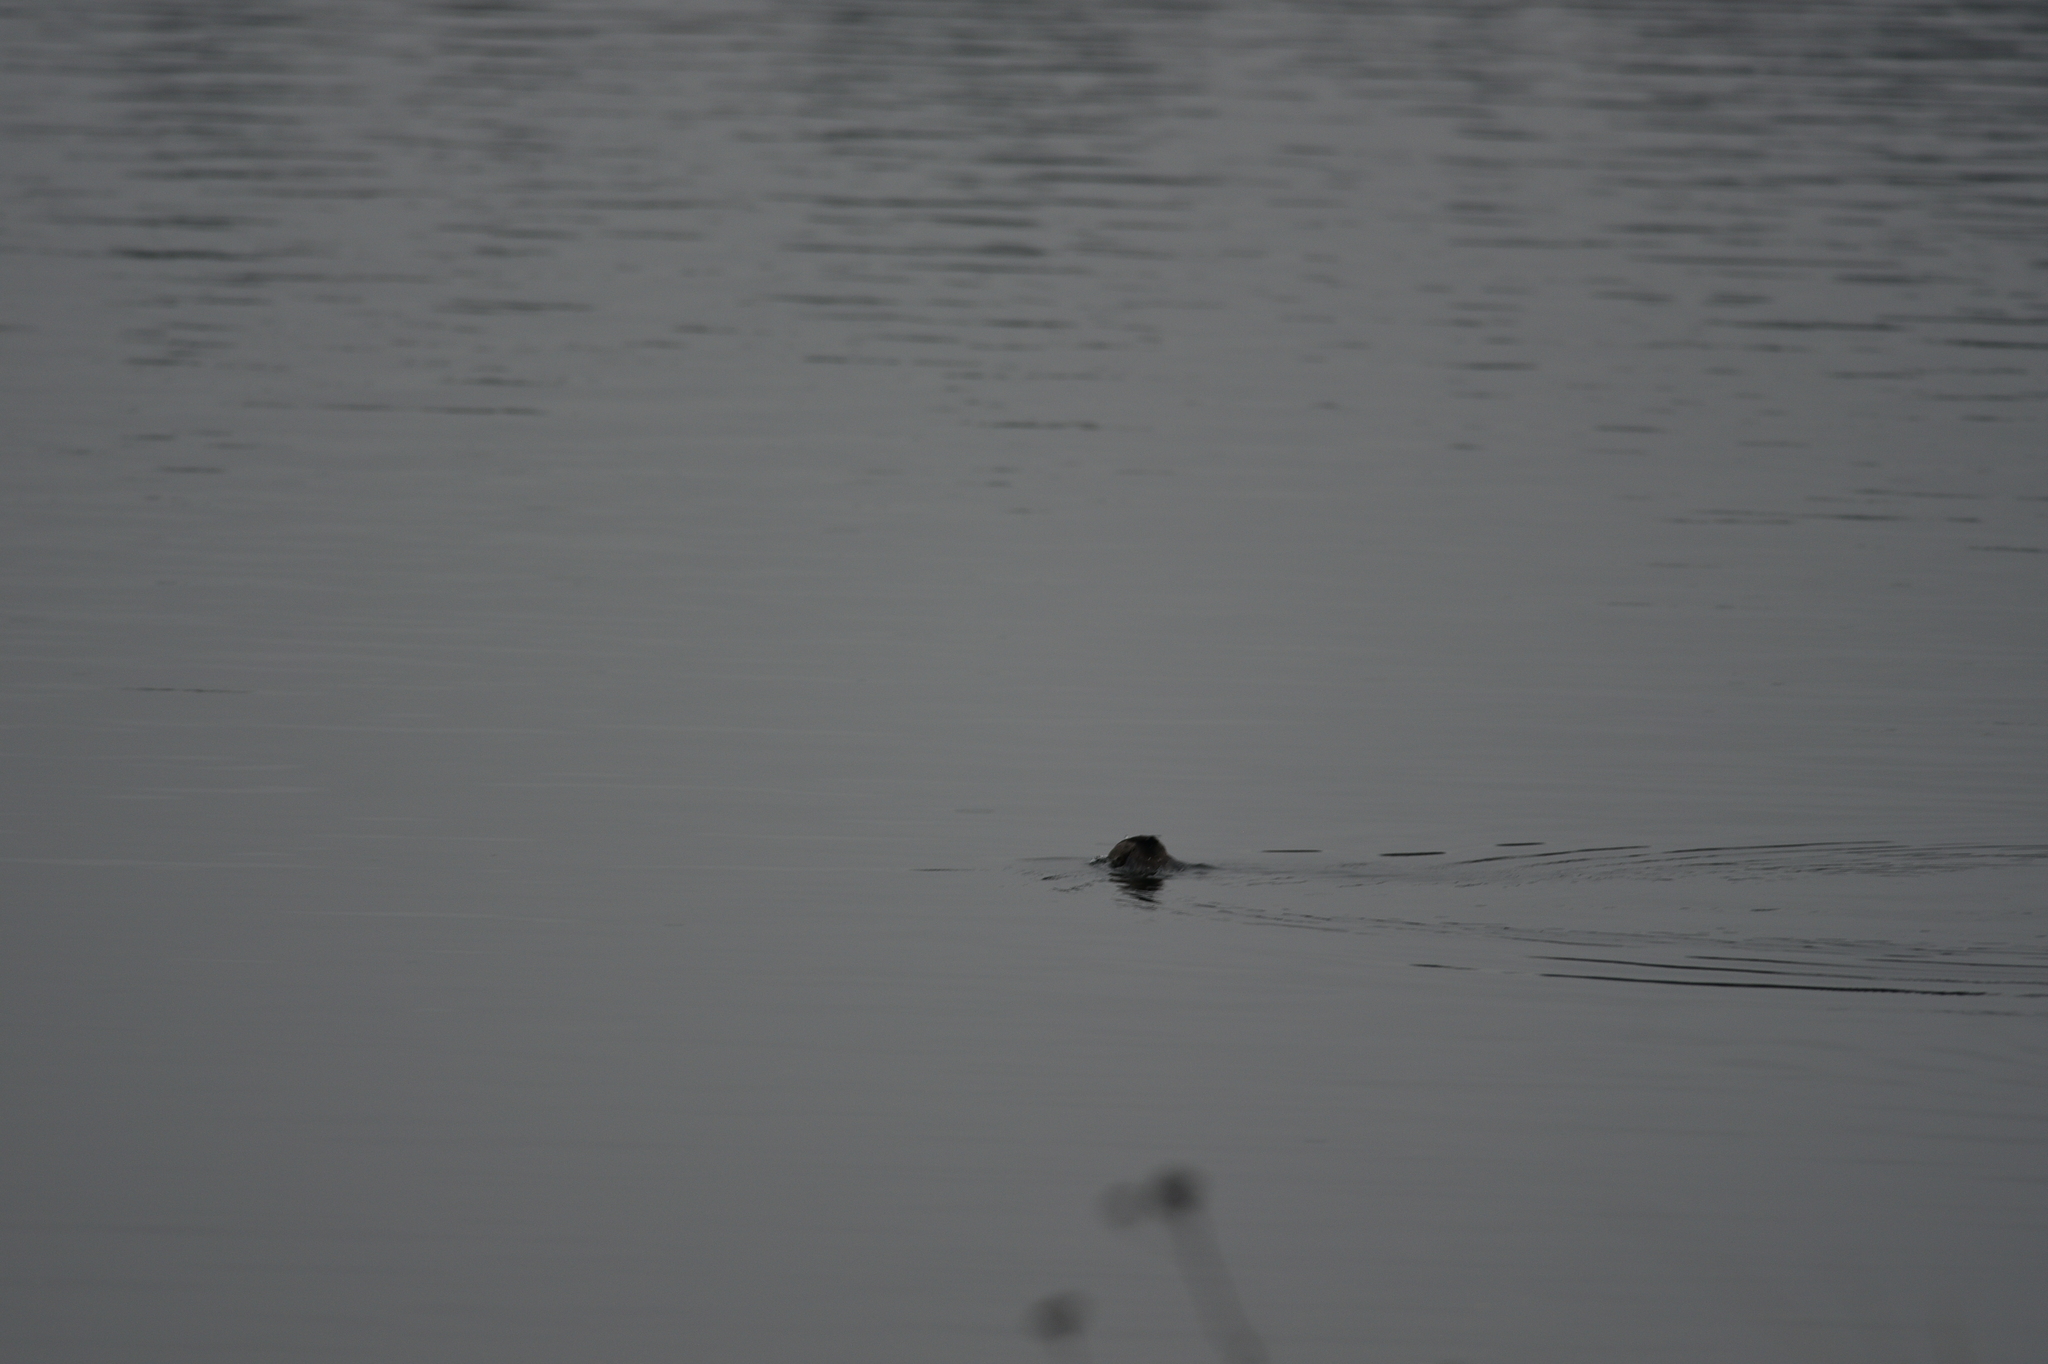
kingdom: Animalia
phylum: Chordata
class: Aves
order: Anseriformes
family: Anatidae
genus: Bucephala
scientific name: Bucephala albeola
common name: Bufflehead
